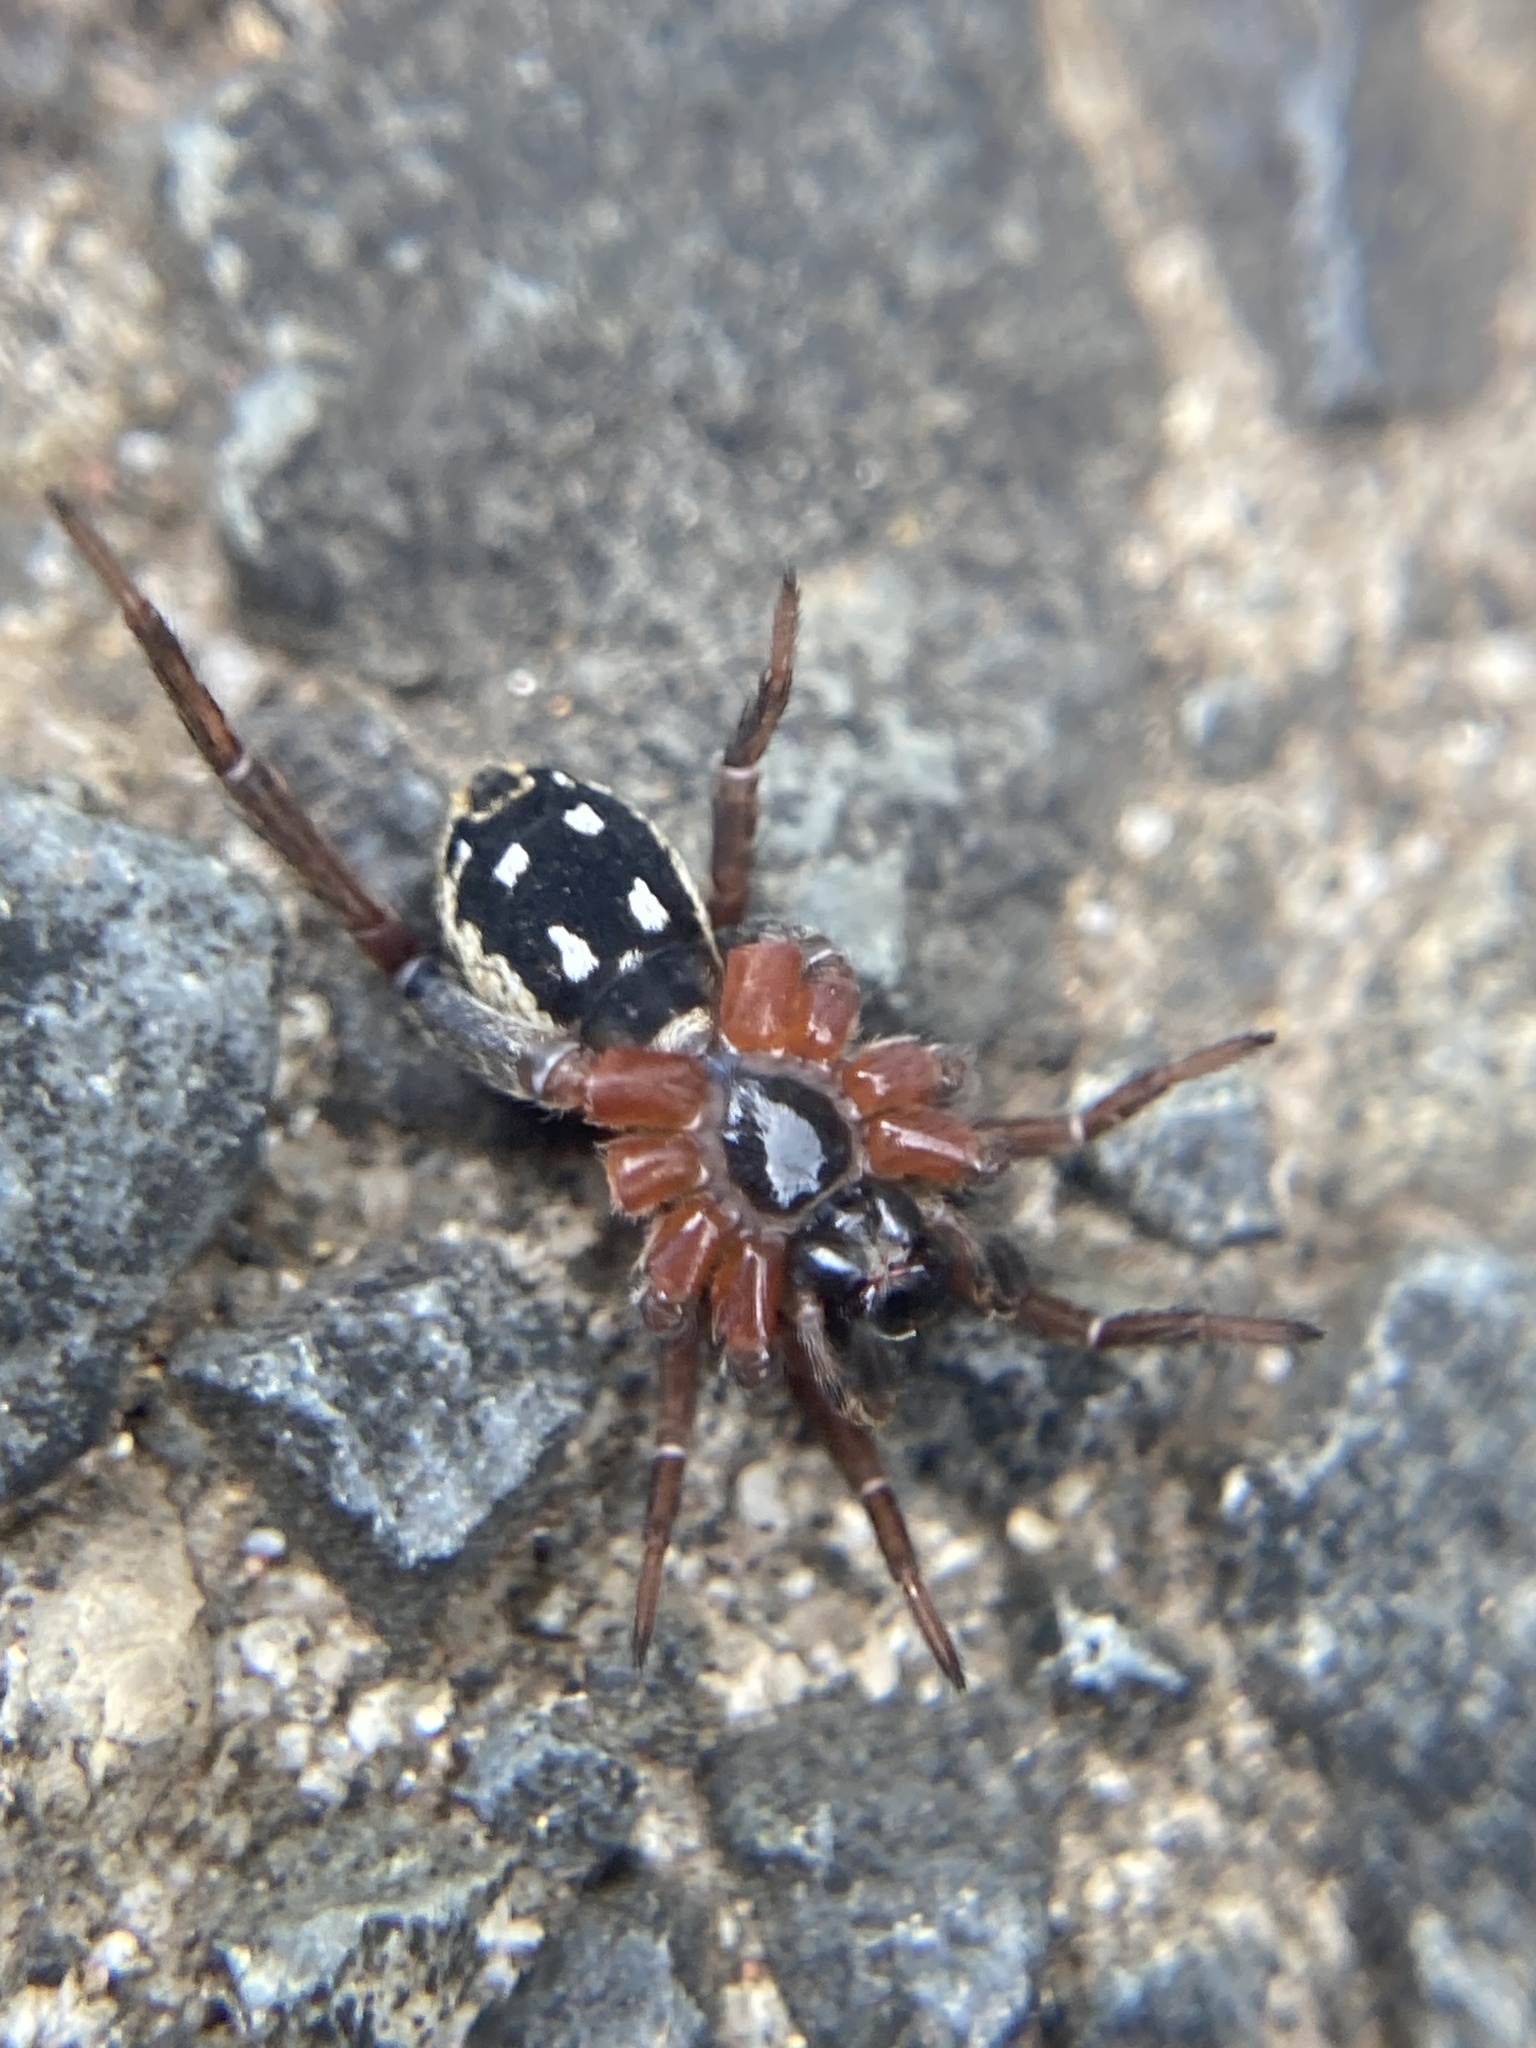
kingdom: Animalia
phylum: Arthropoda
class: Arachnida
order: Araneae
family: Lycosidae
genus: Venatrix
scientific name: Venatrix pictiventris
